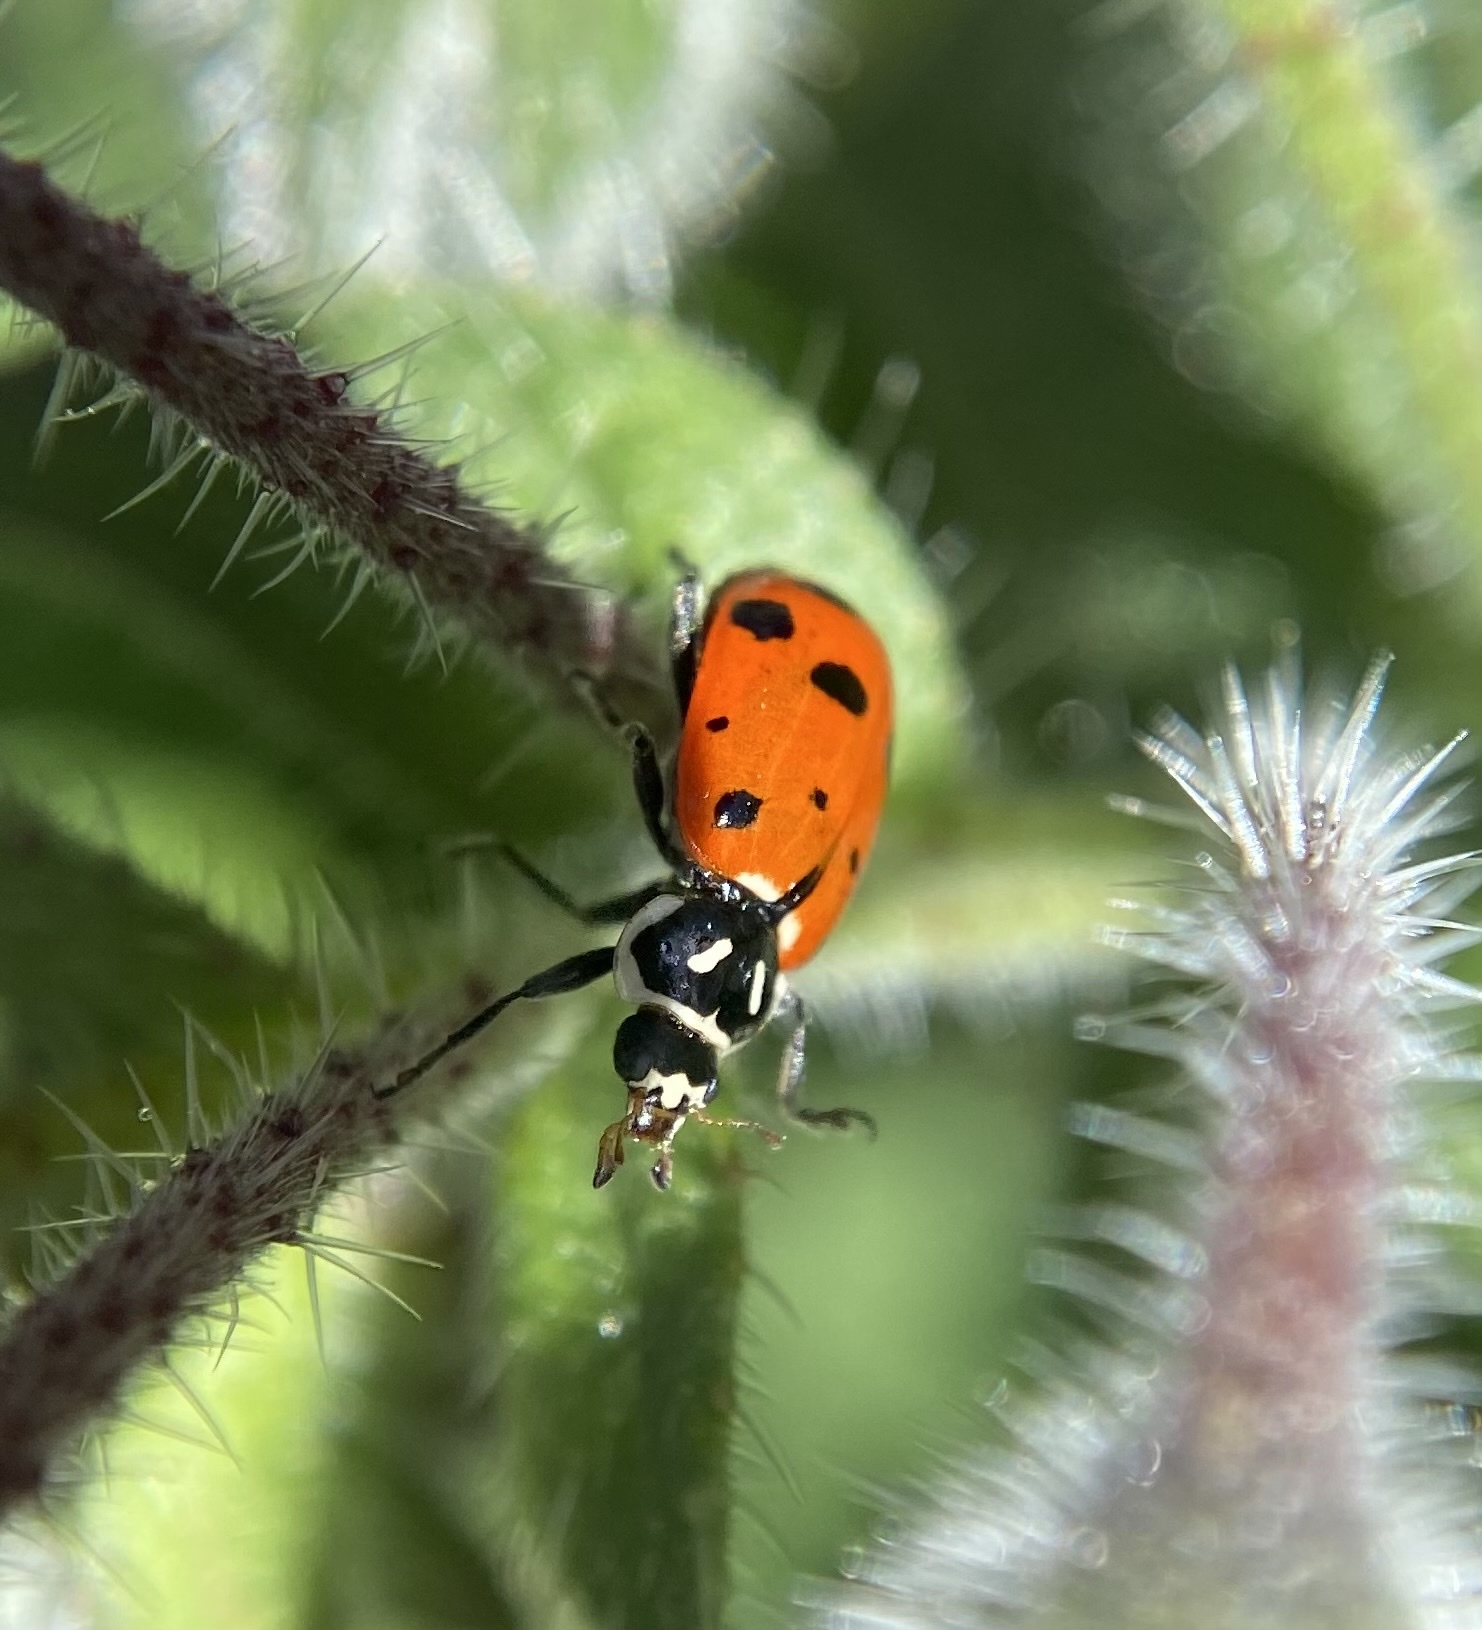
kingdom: Animalia
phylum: Arthropoda
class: Insecta
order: Coleoptera
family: Coccinellidae
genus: Hippodamia
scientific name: Hippodamia convergens
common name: Convergent lady beetle
